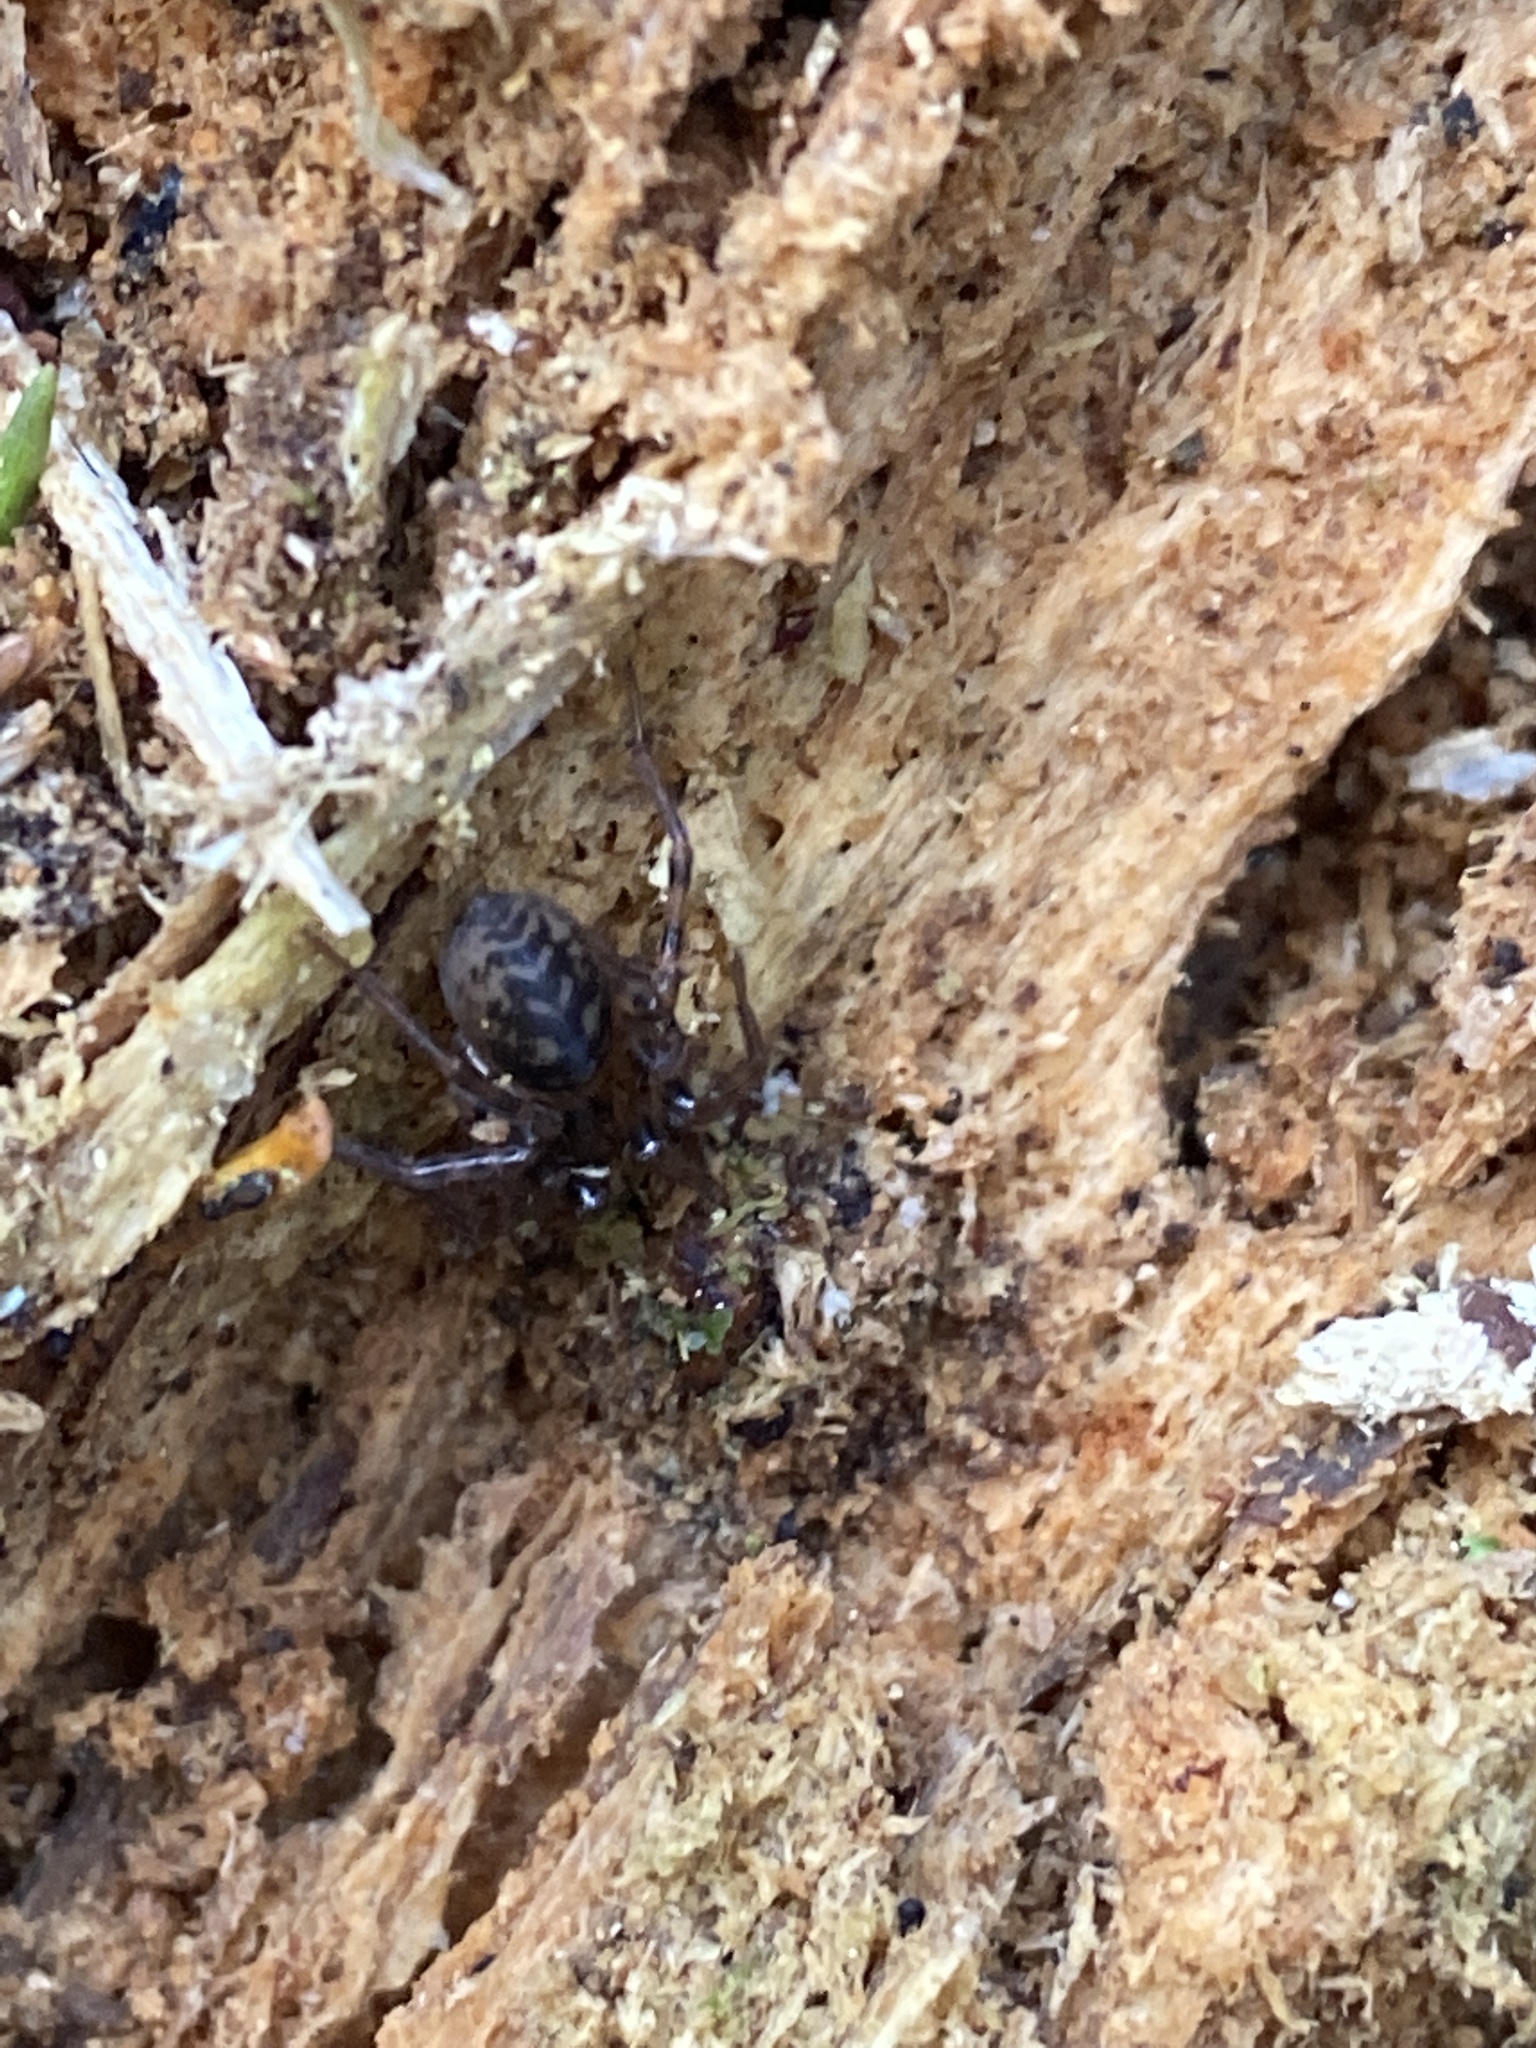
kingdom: Animalia
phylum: Arthropoda
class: Arachnida
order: Araneae
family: Cybaeidae
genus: Cybaeus
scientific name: Cybaeus angustiarum
